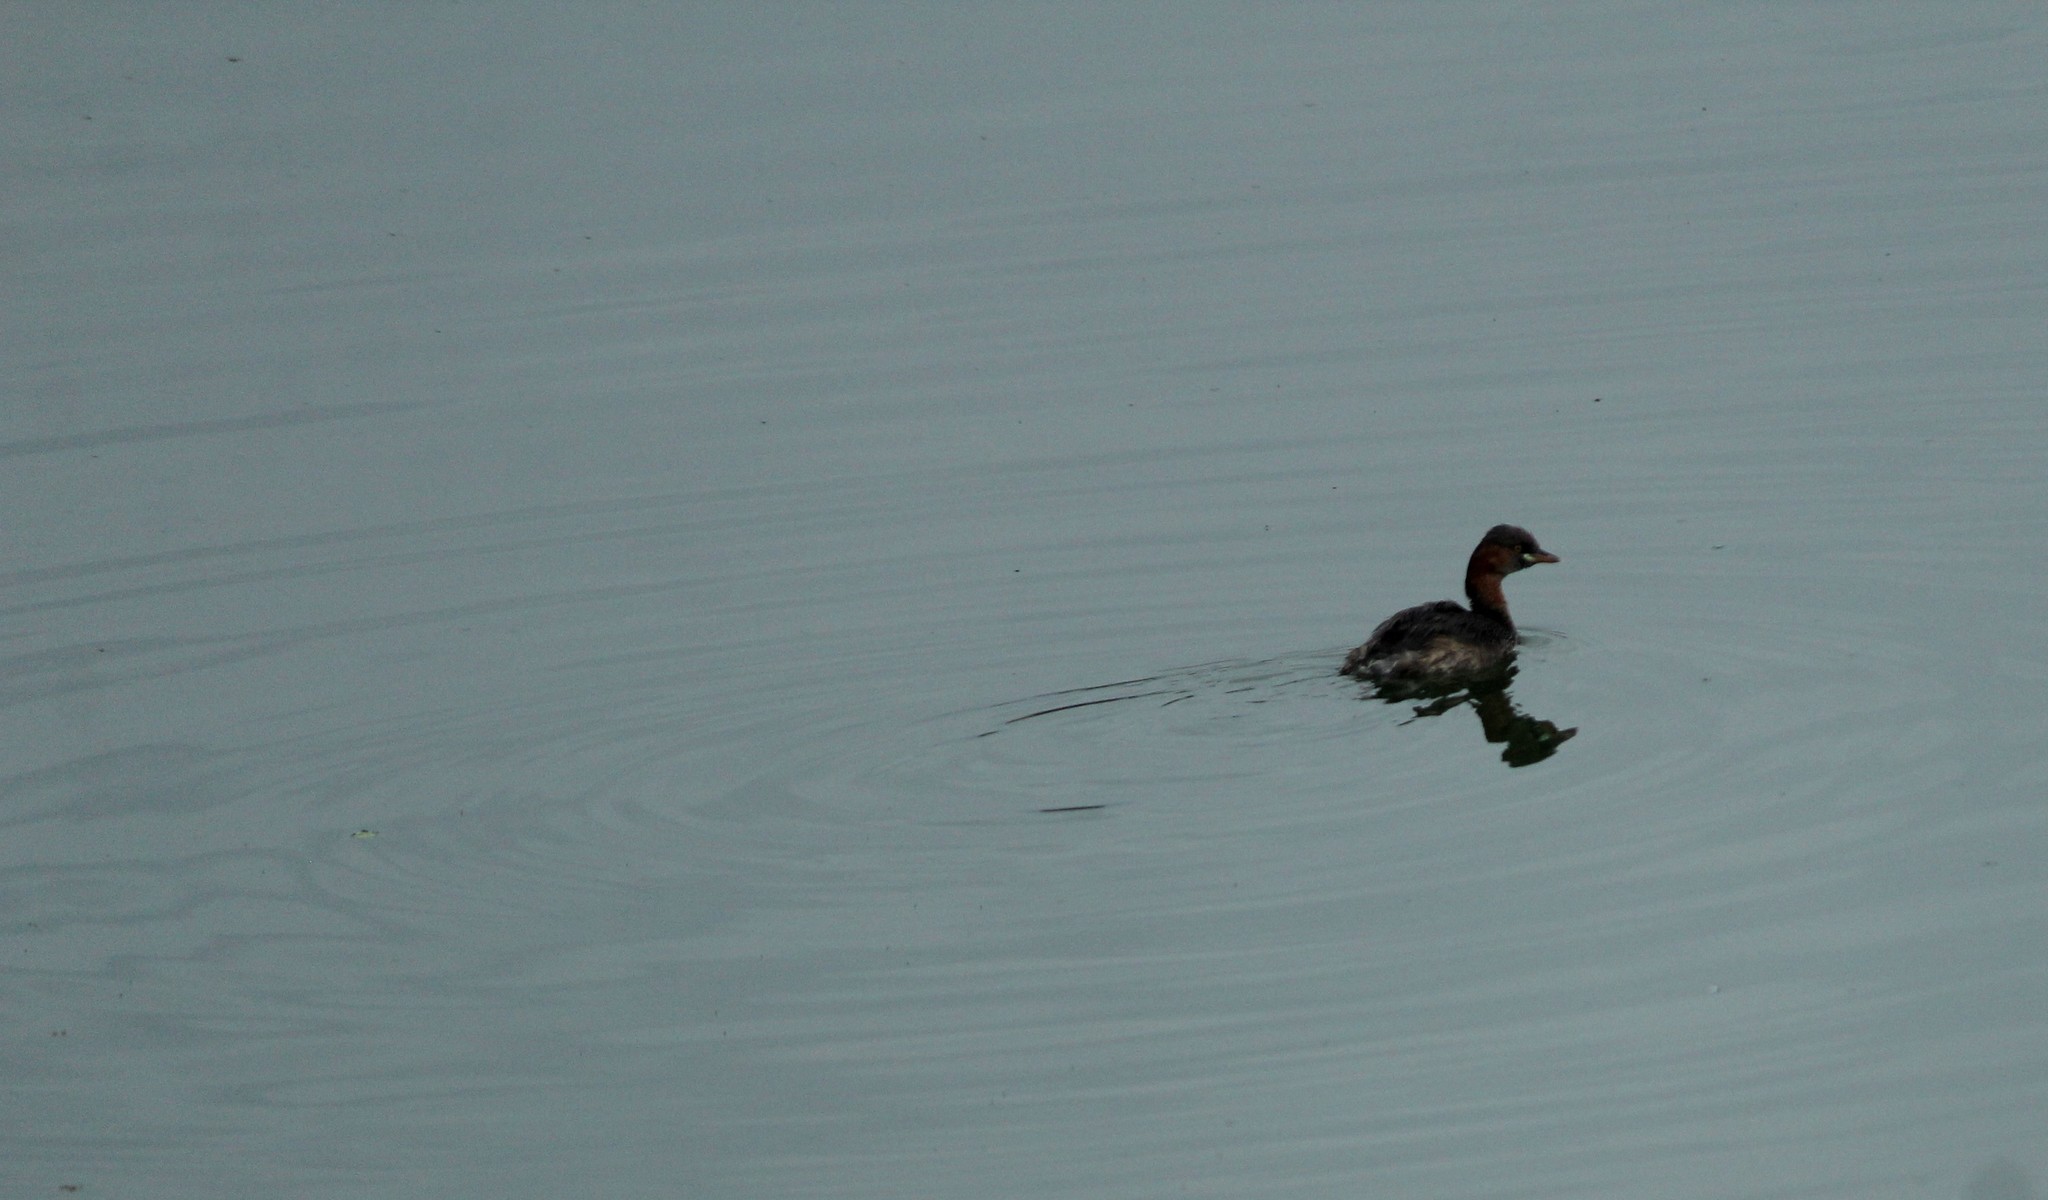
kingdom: Animalia
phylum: Chordata
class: Aves
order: Podicipediformes
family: Podicipedidae
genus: Tachybaptus
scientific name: Tachybaptus ruficollis
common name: Little grebe
